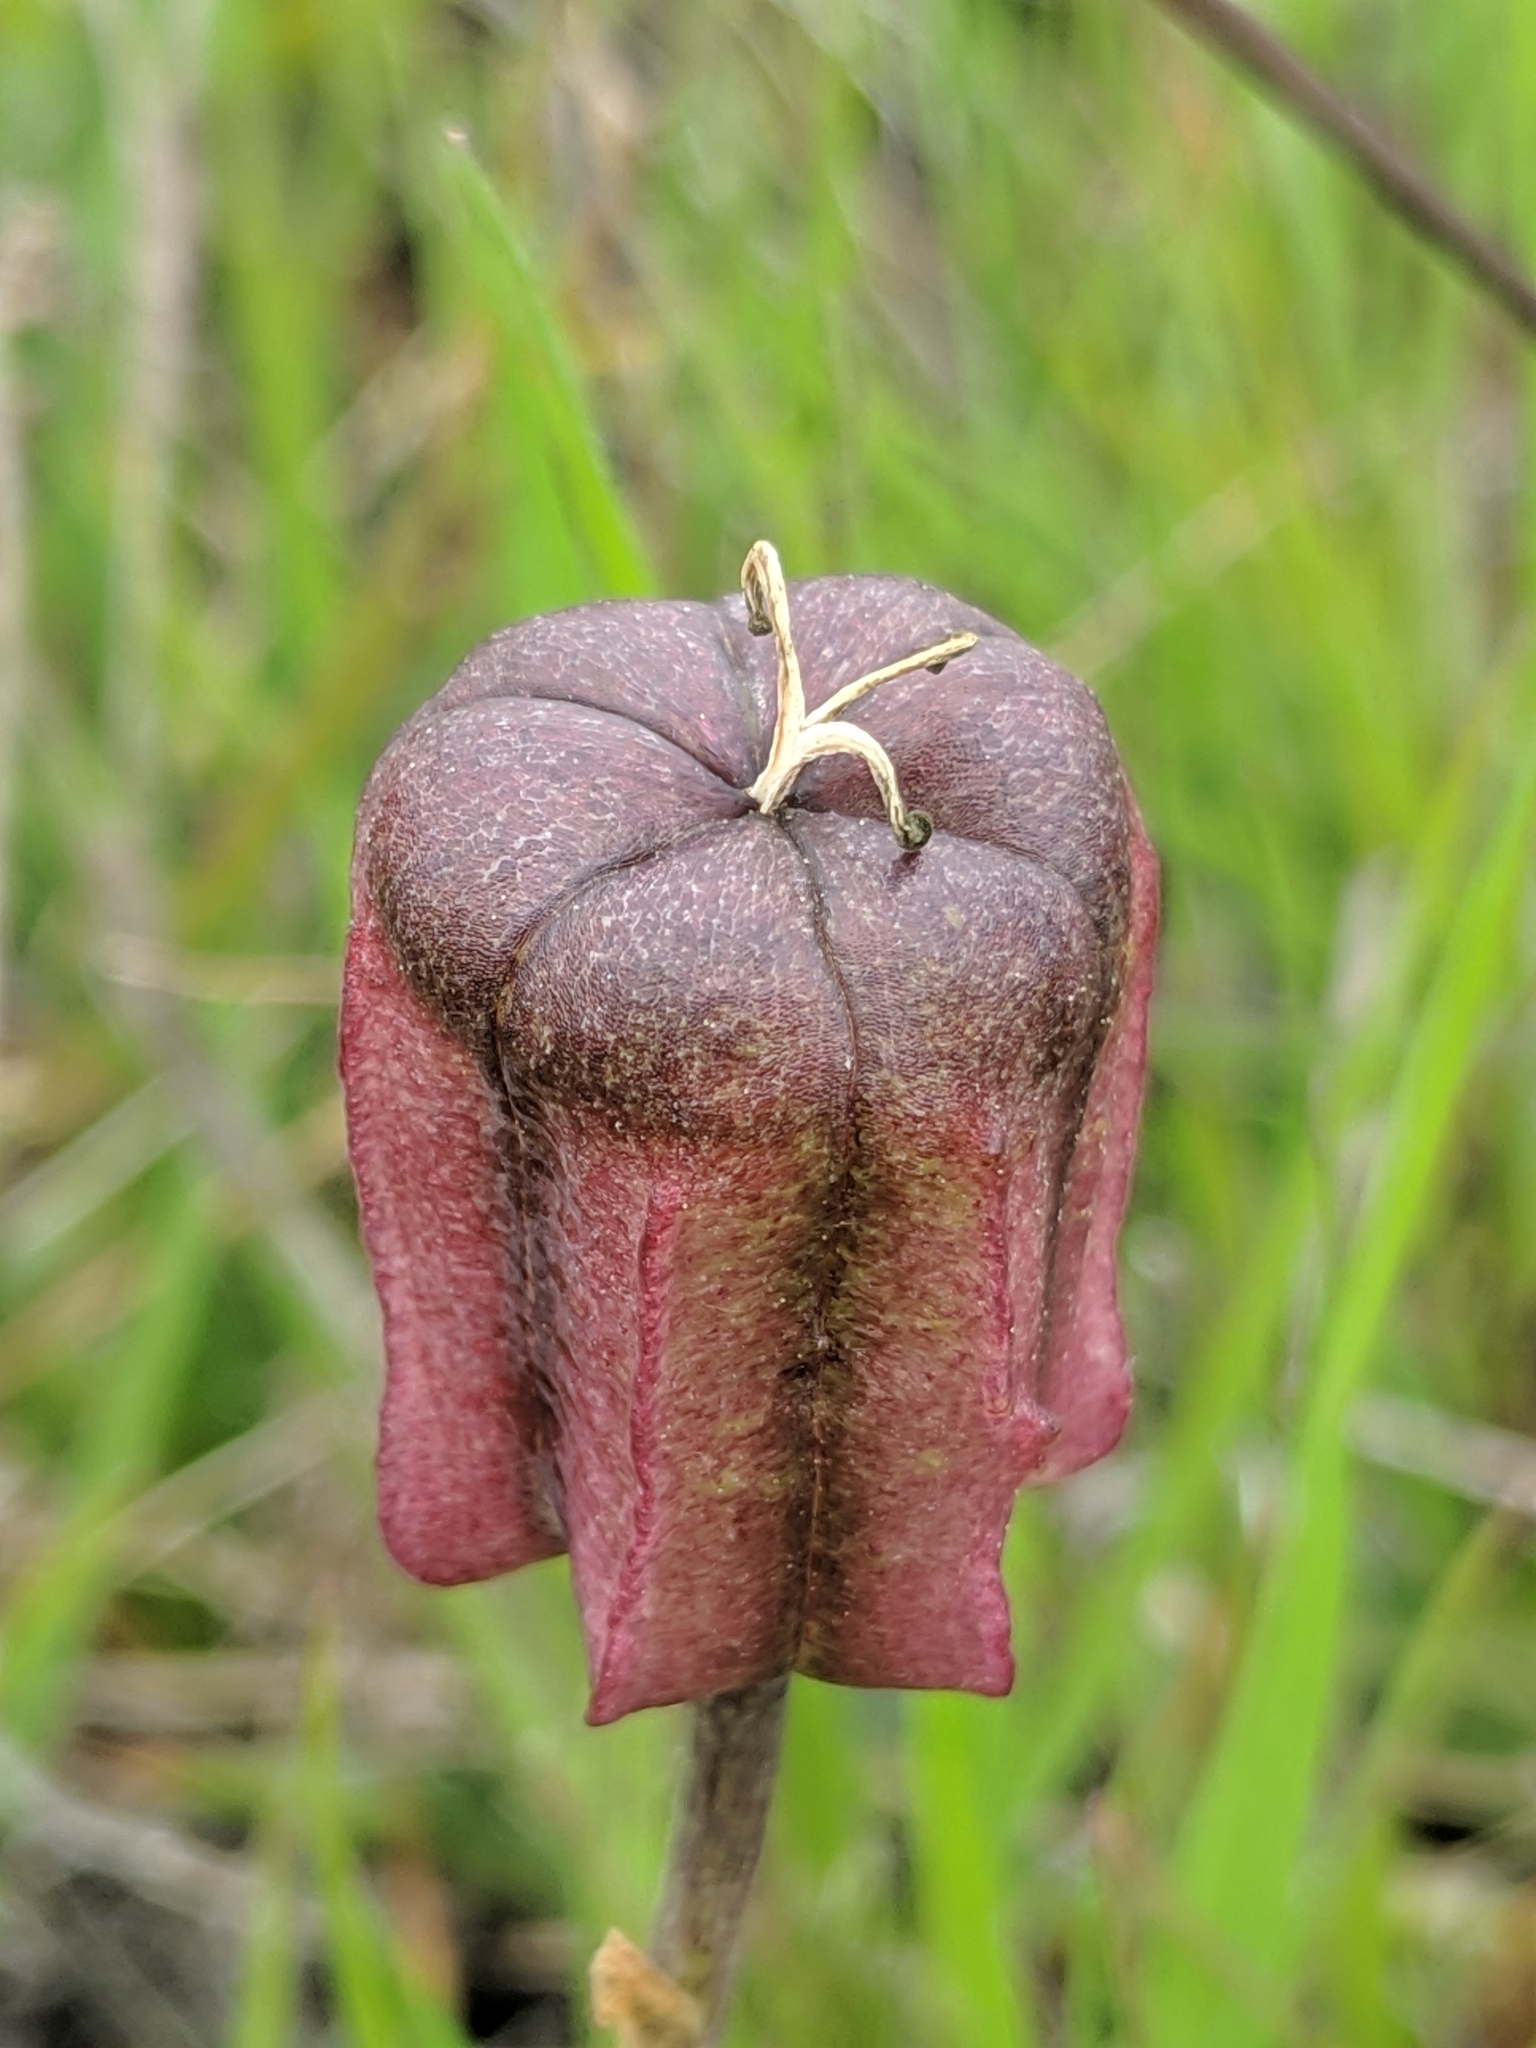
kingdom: Plantae
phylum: Tracheophyta
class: Liliopsida
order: Liliales
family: Liliaceae
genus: Fritillaria
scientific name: Fritillaria biflora
